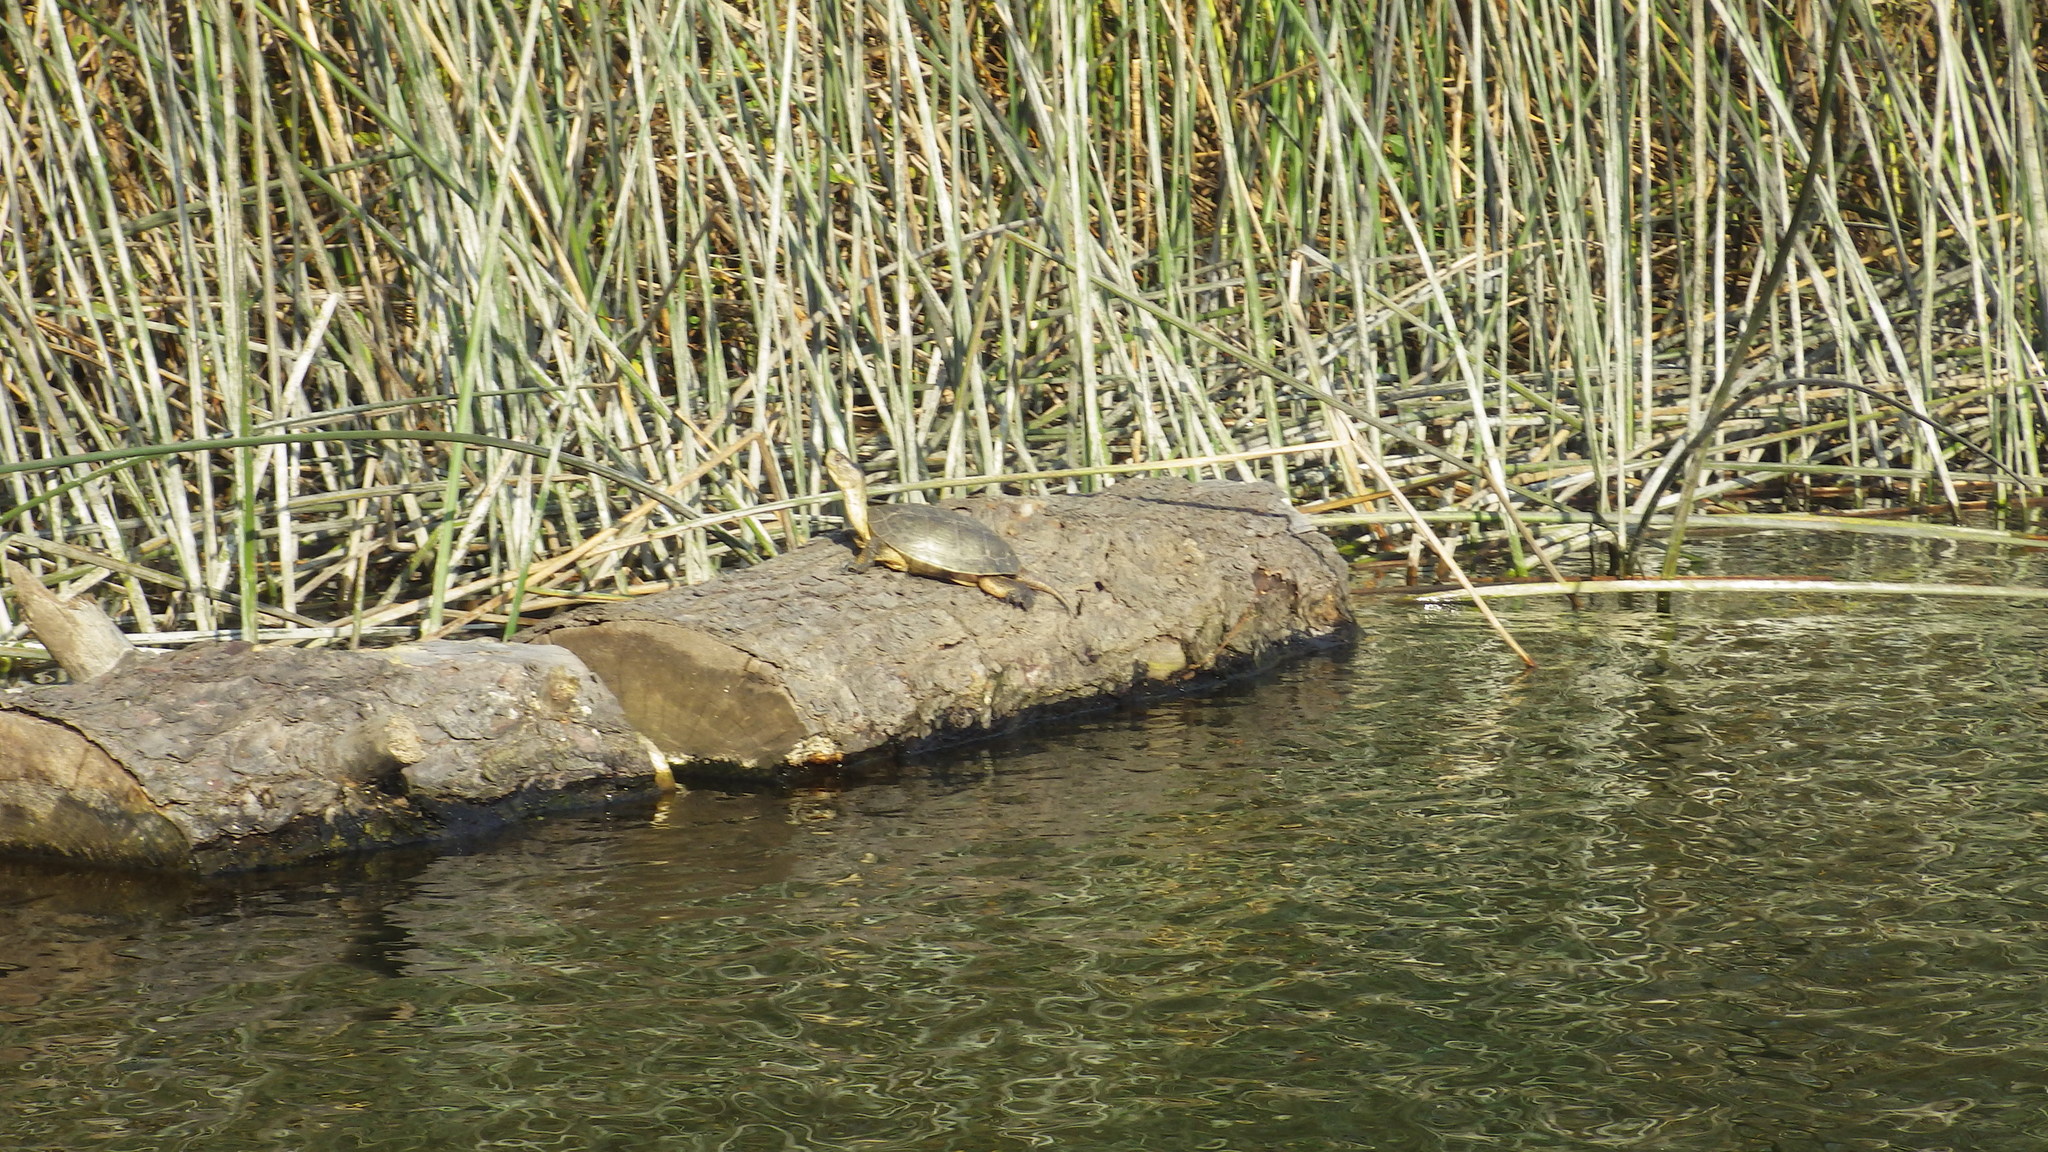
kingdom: Animalia
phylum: Chordata
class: Testudines
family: Emydidae
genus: Actinemys
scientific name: Actinemys marmorata
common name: Western pond turtle
